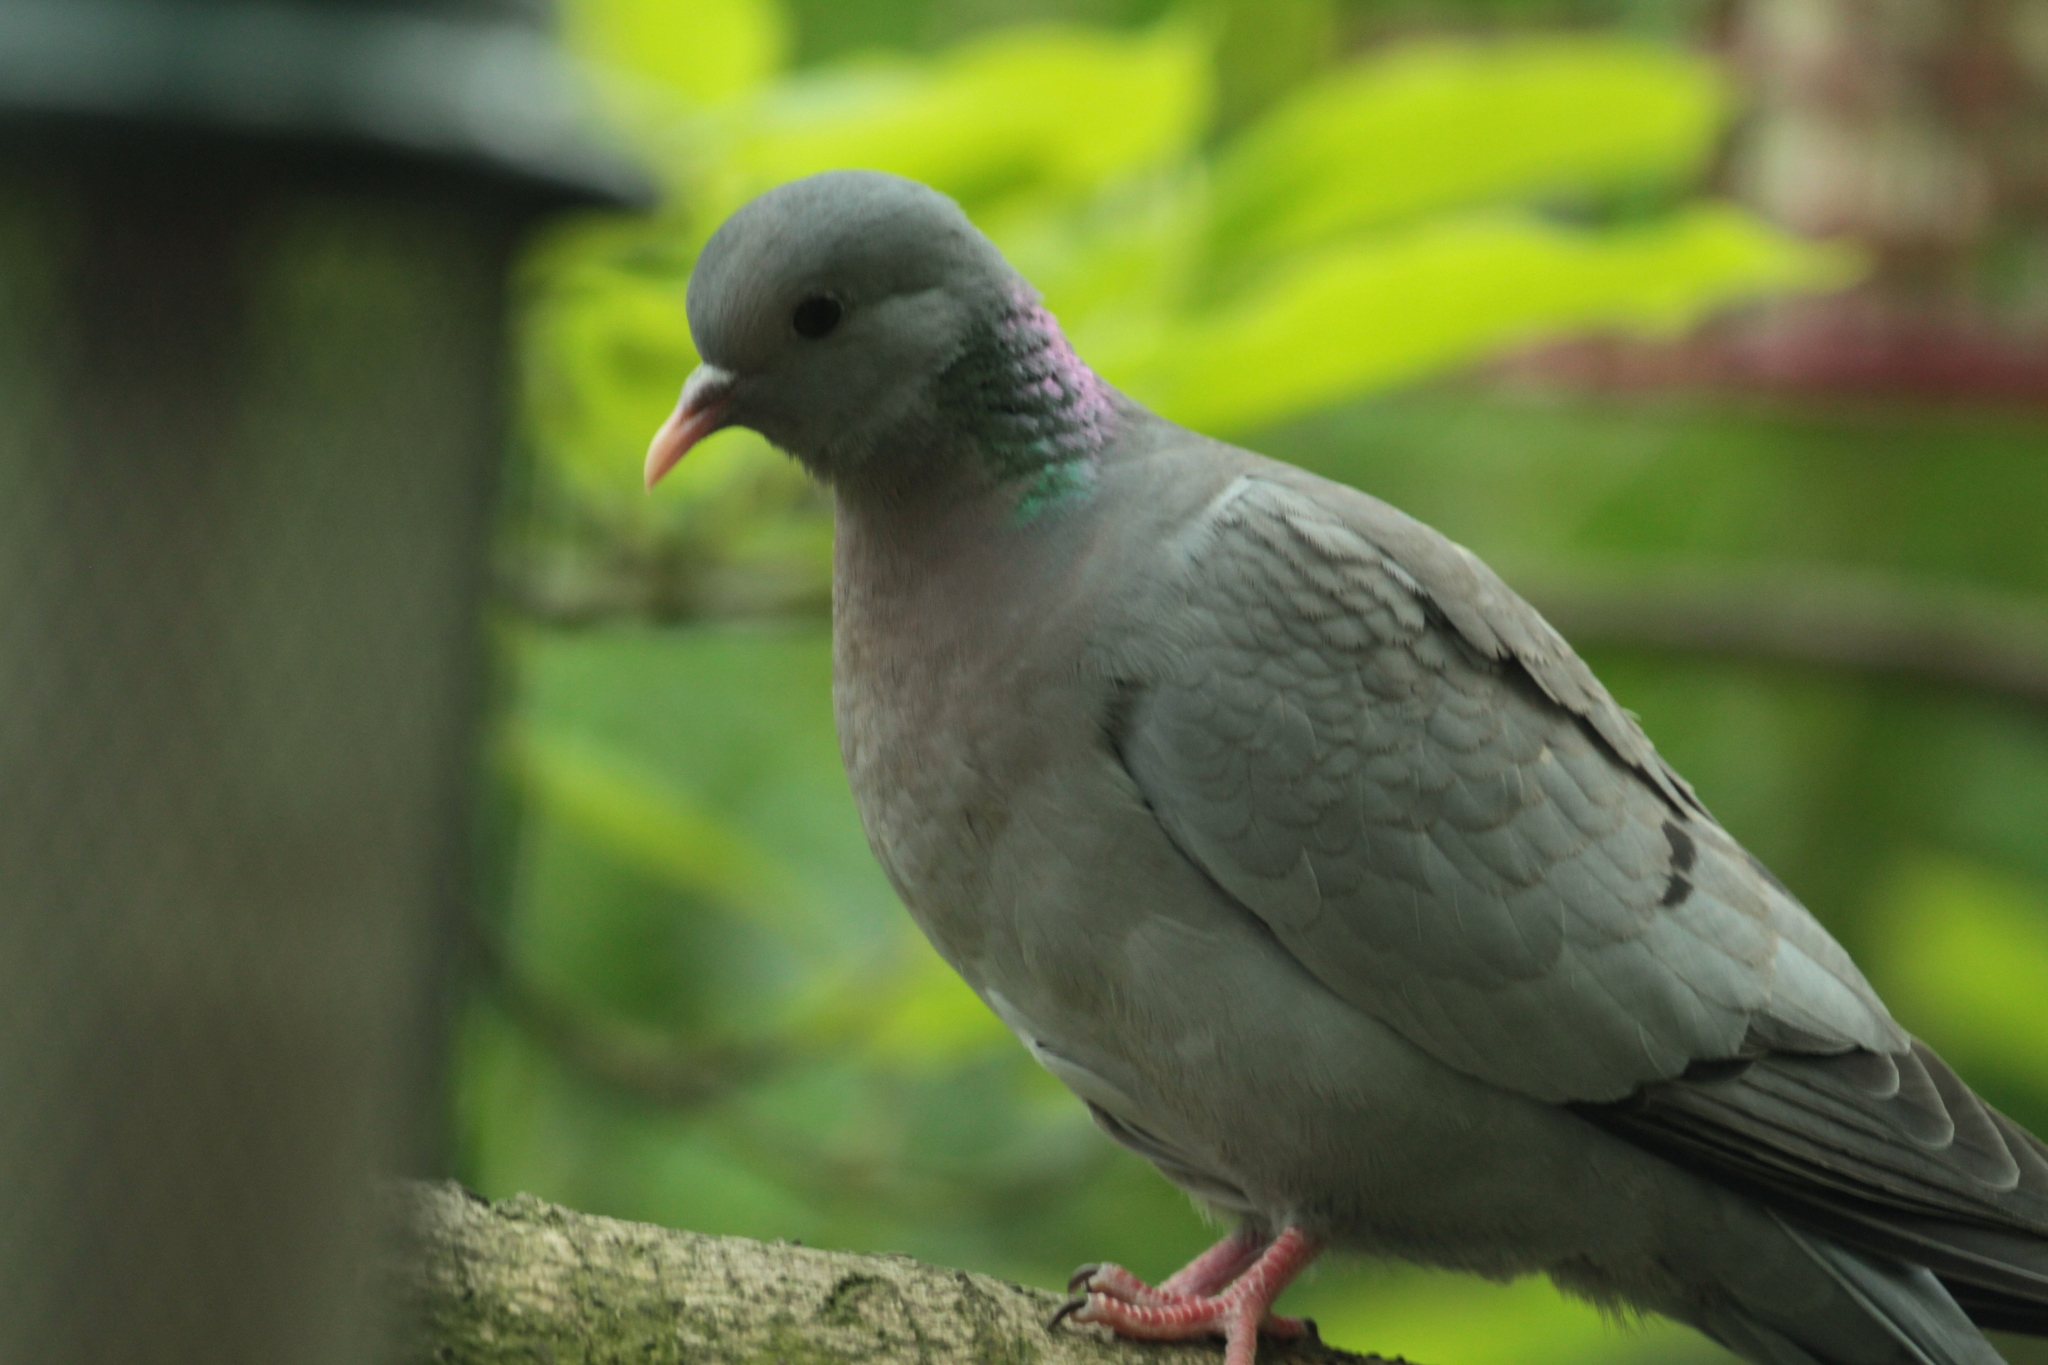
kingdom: Animalia
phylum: Chordata
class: Aves
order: Columbiformes
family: Columbidae
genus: Columba
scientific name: Columba oenas
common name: Stock dove
